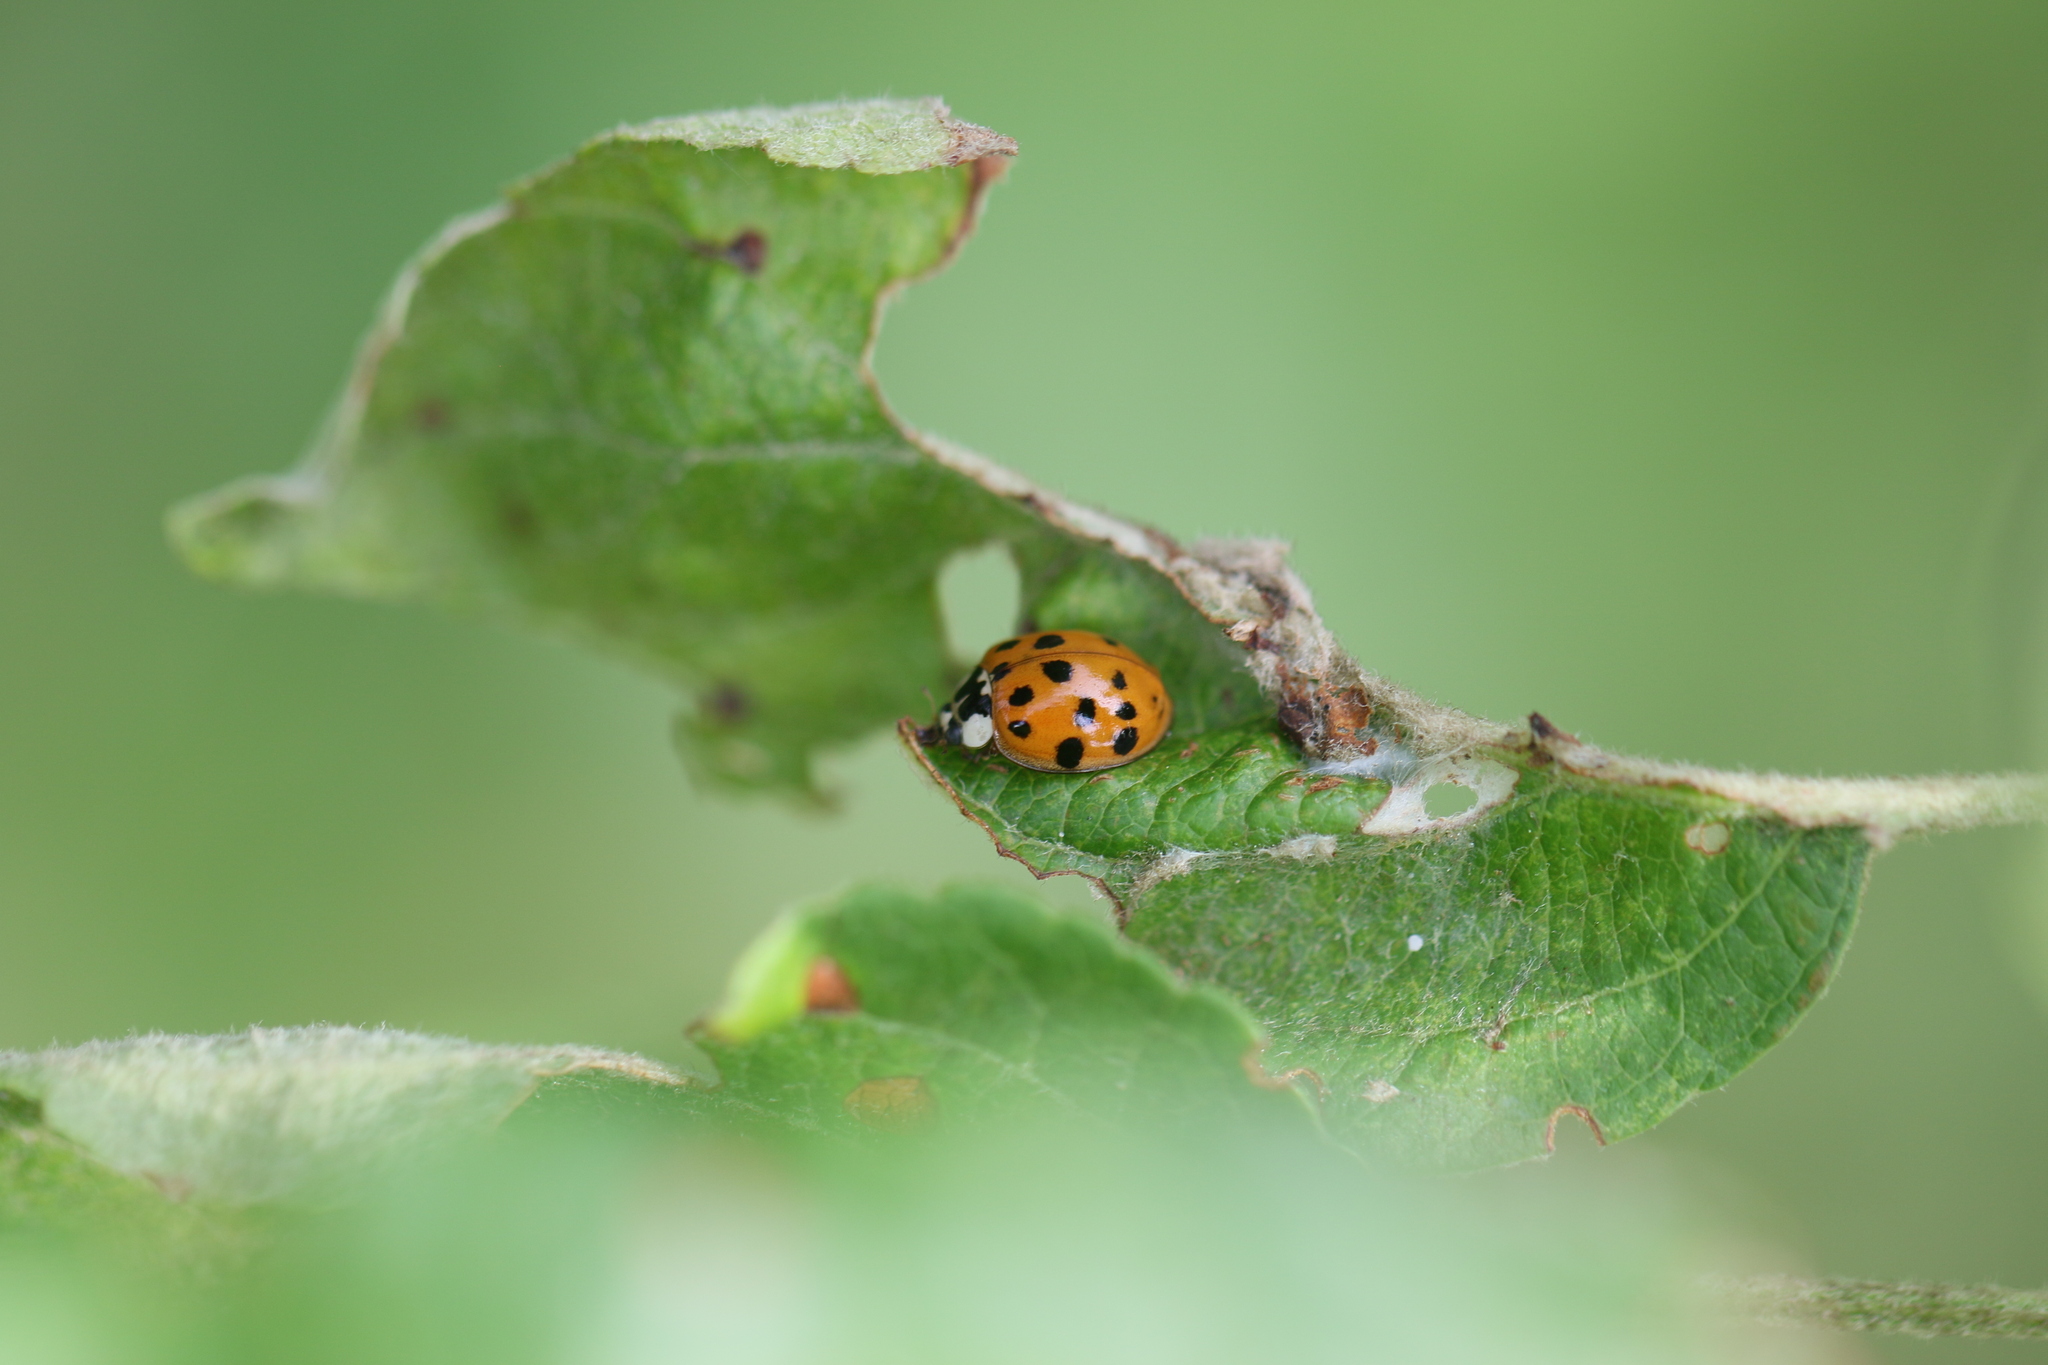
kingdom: Animalia
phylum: Arthropoda
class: Insecta
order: Coleoptera
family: Coccinellidae
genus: Harmonia
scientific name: Harmonia axyridis
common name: Harlequin ladybird
